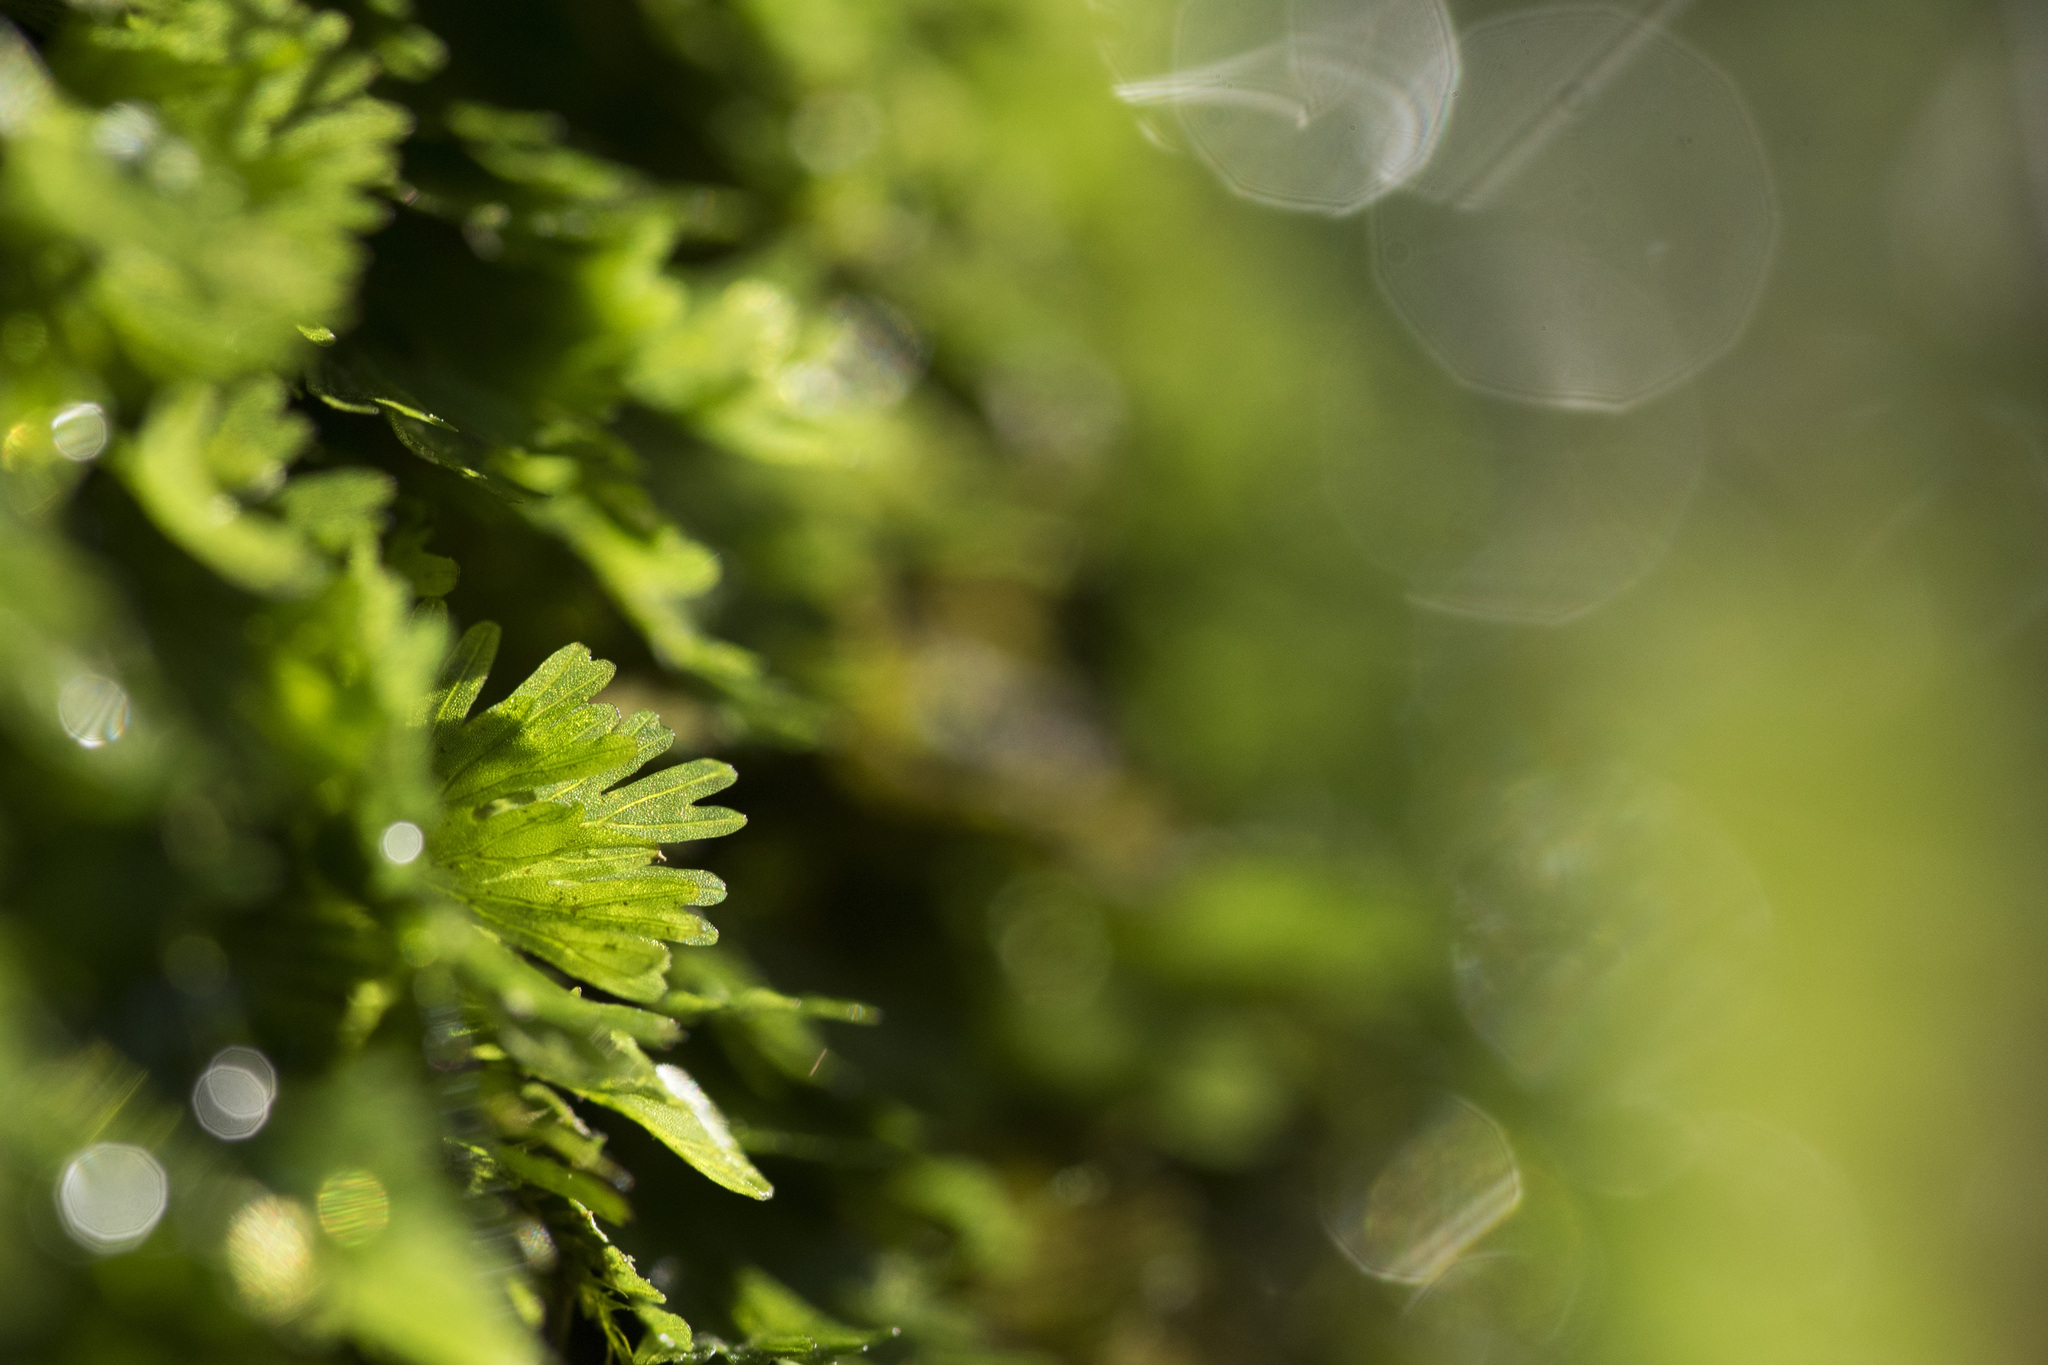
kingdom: Plantae
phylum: Tracheophyta
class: Polypodiopsida
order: Hymenophyllales
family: Hymenophyllaceae
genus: Crepidomanes
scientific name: Crepidomanes parvulum
